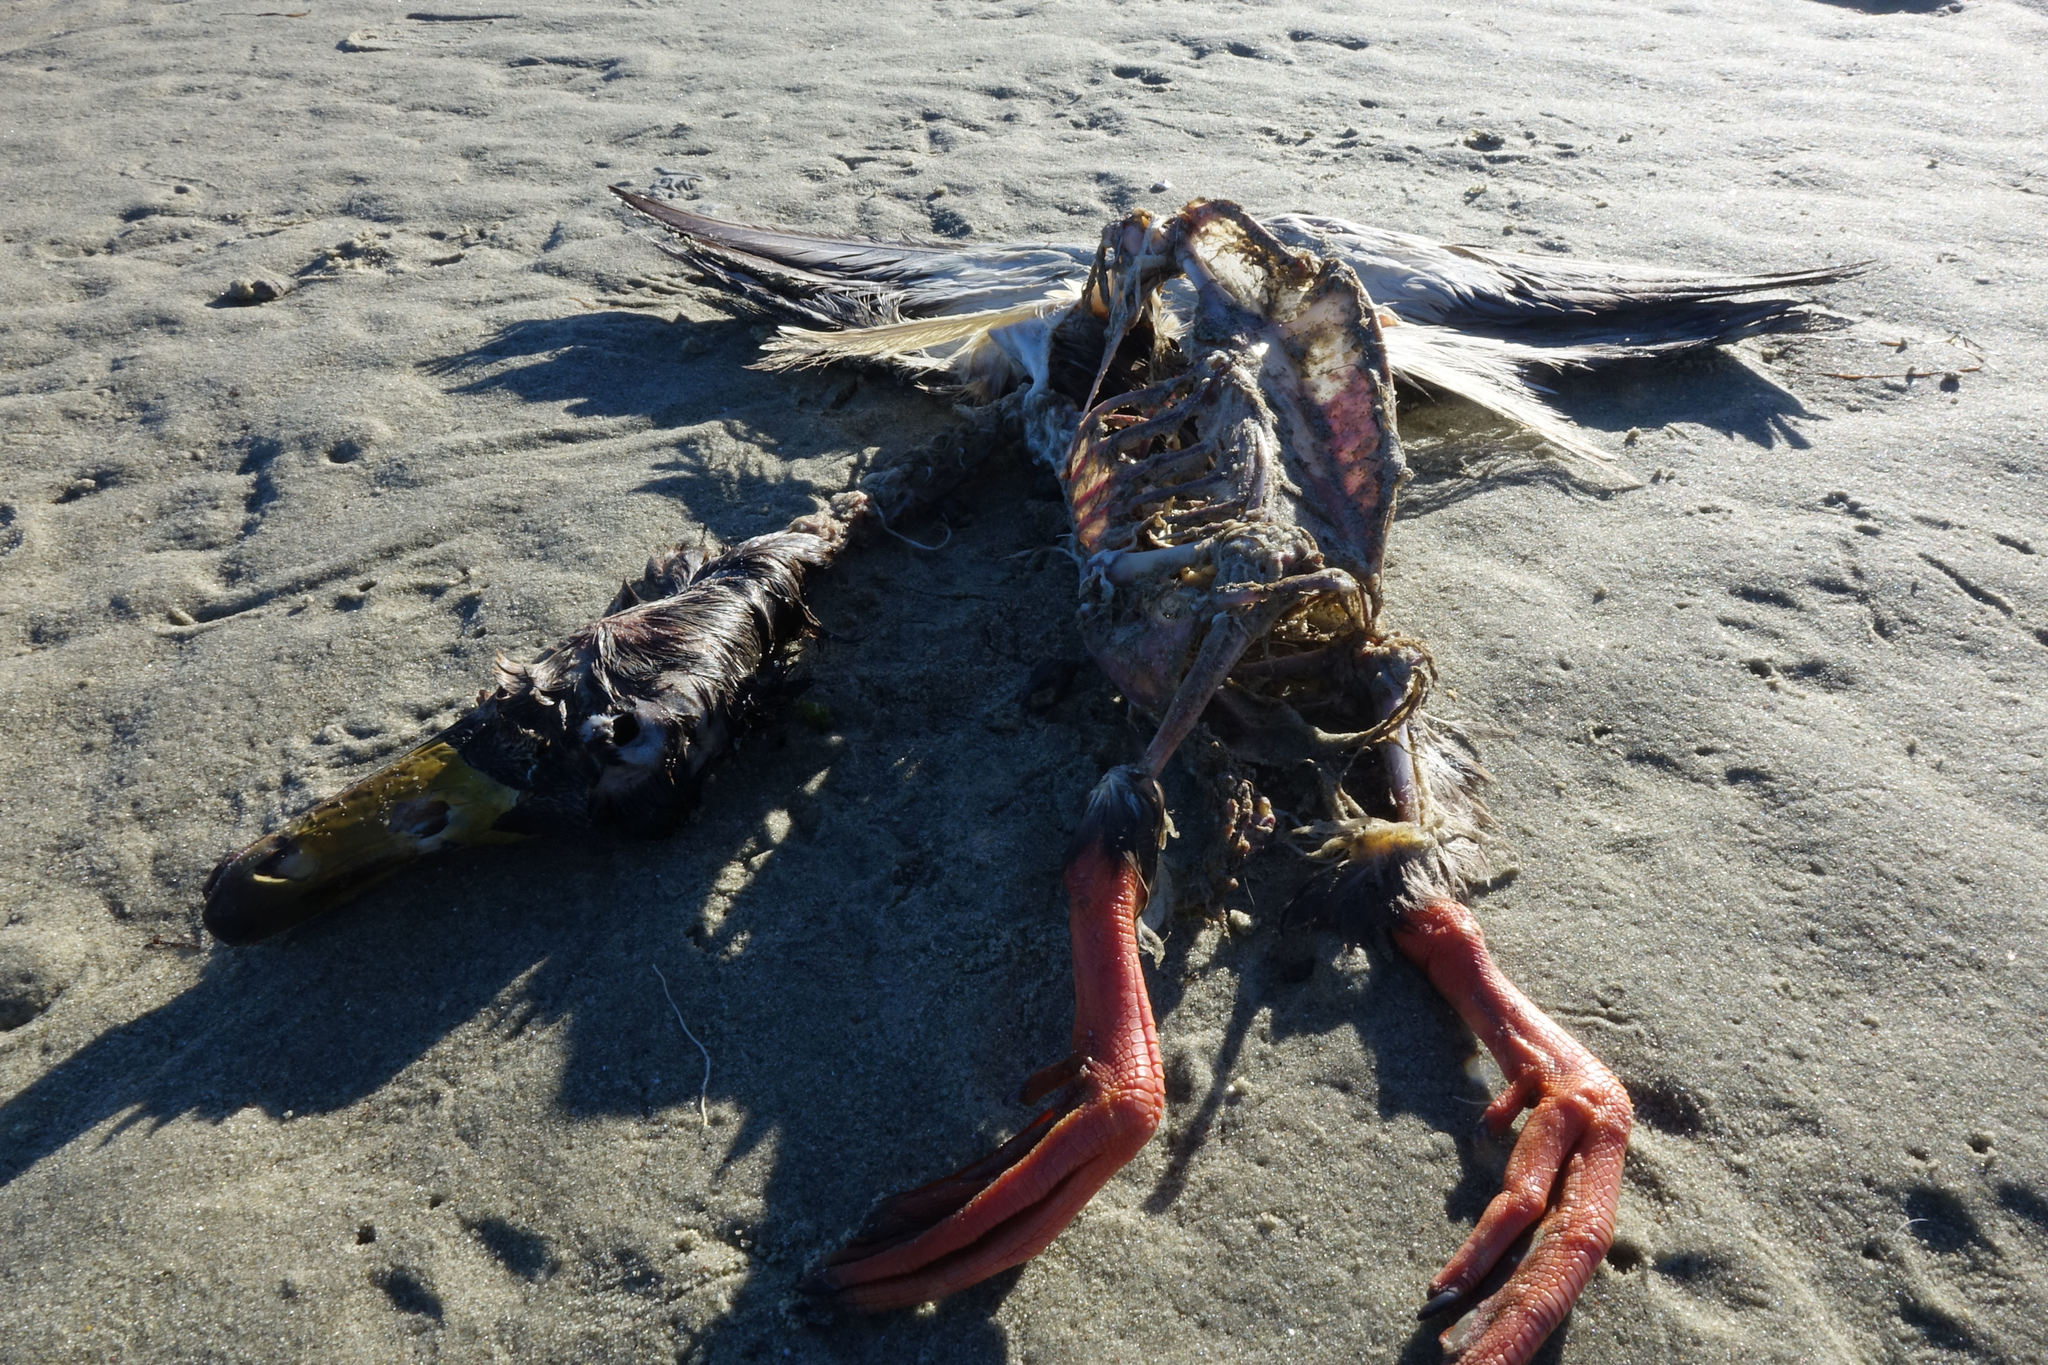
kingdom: Animalia
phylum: Chordata
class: Aves
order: Anseriformes
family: Anatidae
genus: Anas
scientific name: Anas platyrhynchos
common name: Mallard
